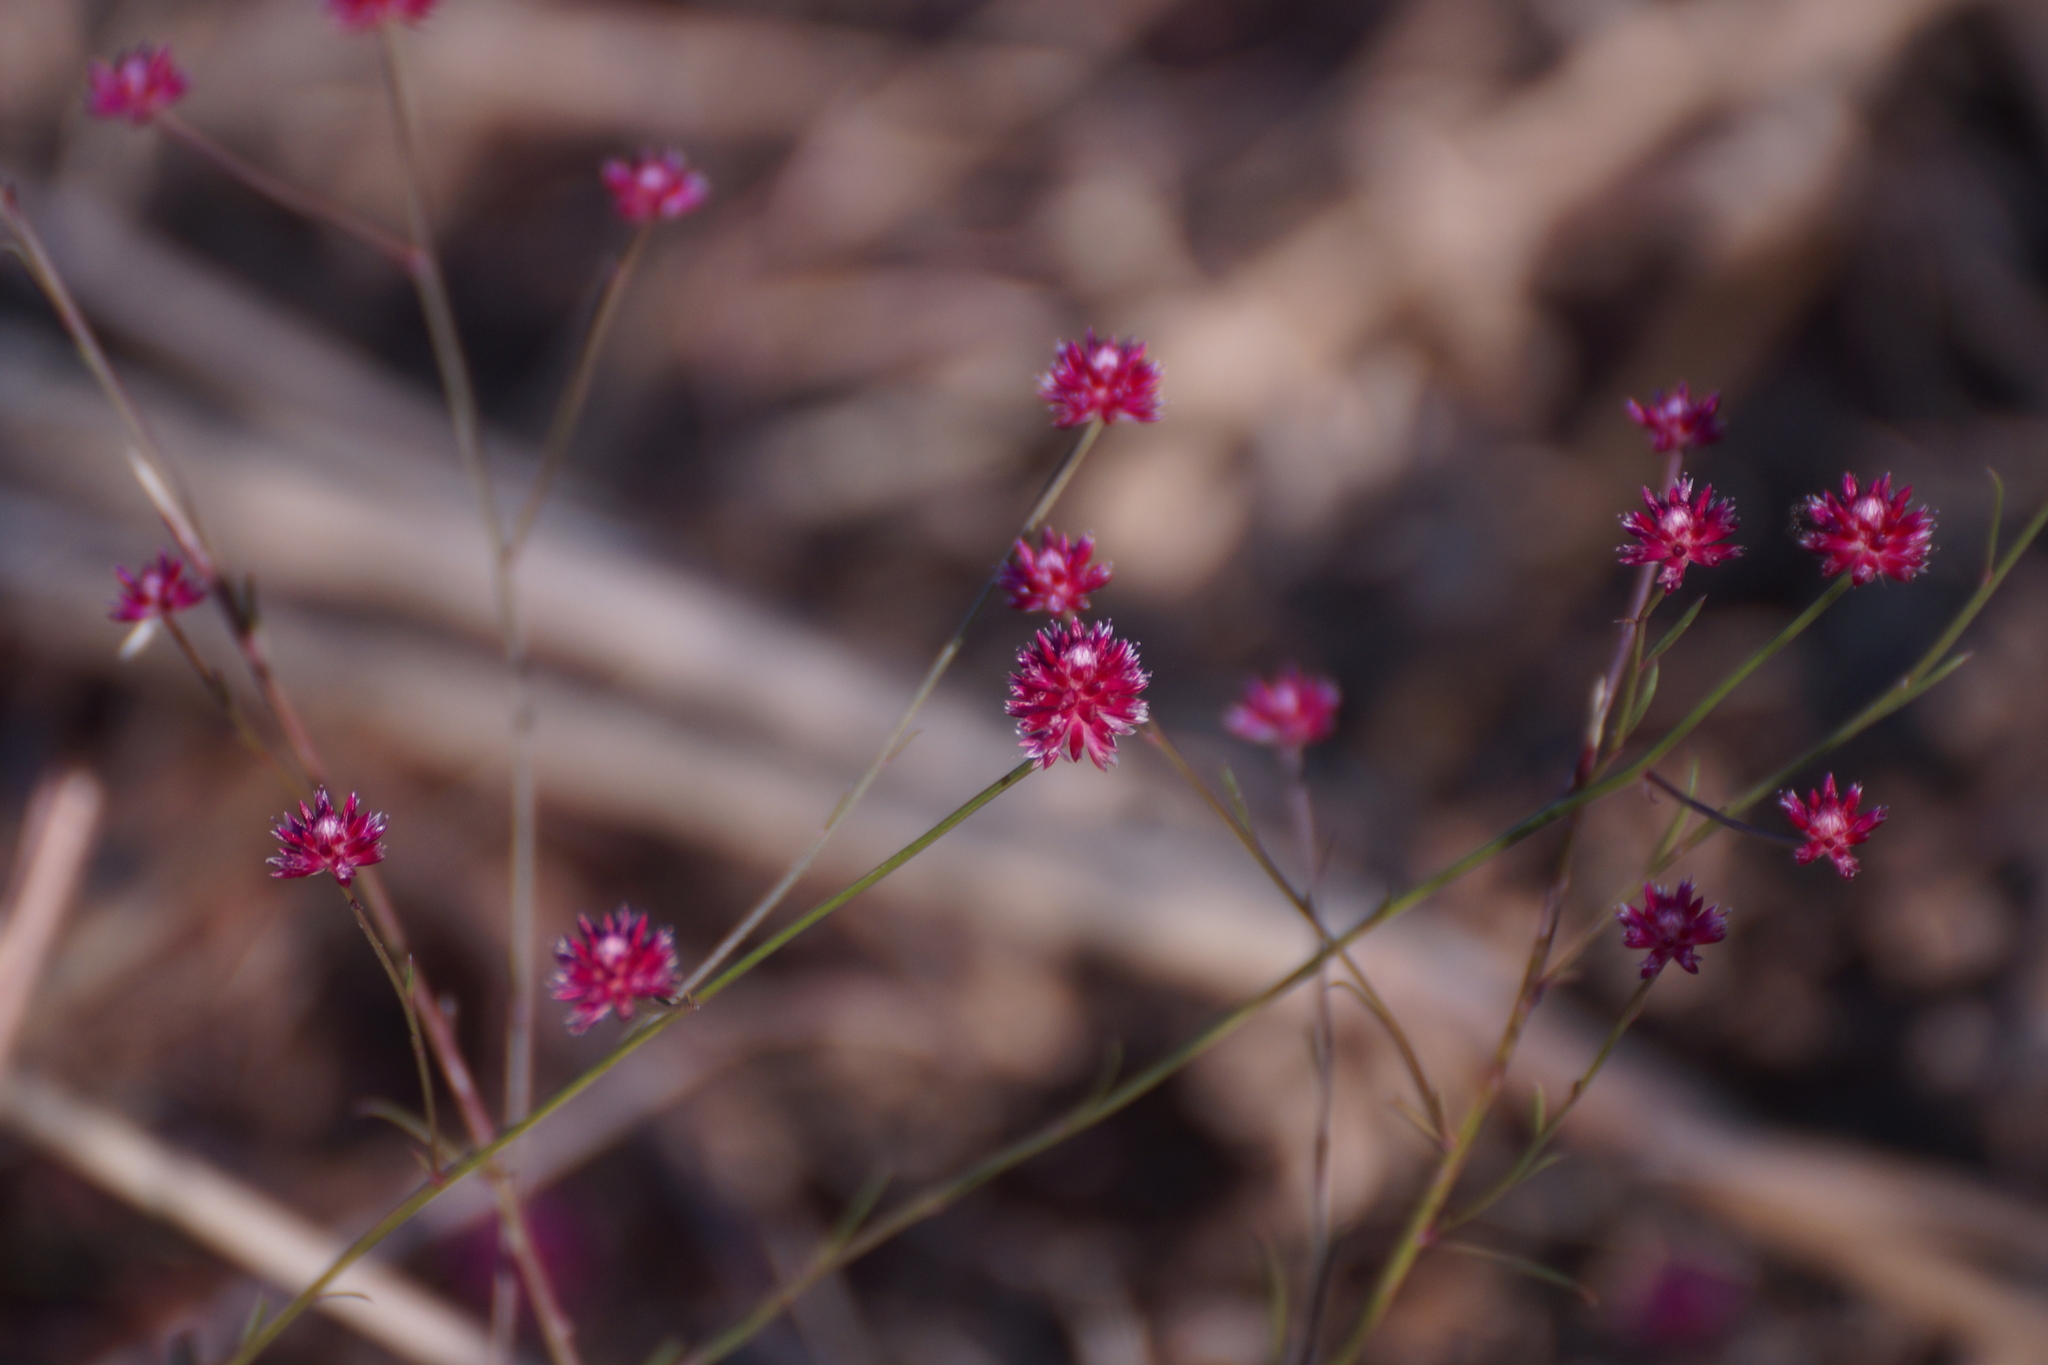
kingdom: Plantae
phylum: Tracheophyta
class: Magnoliopsida
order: Caryophyllales
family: Amaranthaceae
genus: Ptilotus
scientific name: Ptilotus spicatus
